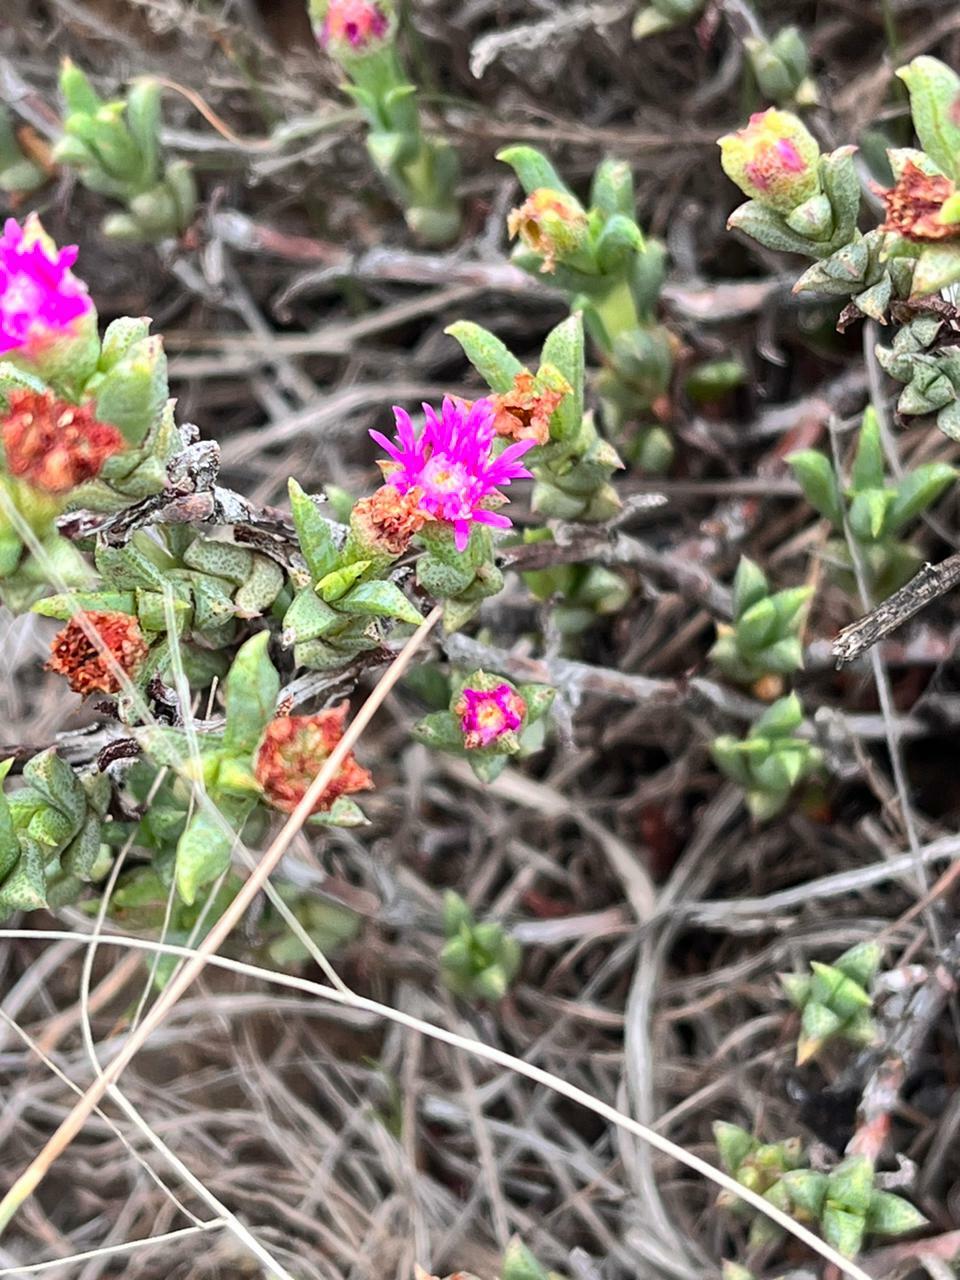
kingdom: Plantae
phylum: Tracheophyta
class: Magnoliopsida
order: Caryophyllales
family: Aizoaceae
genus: Ruschia
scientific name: Ruschia hamata
